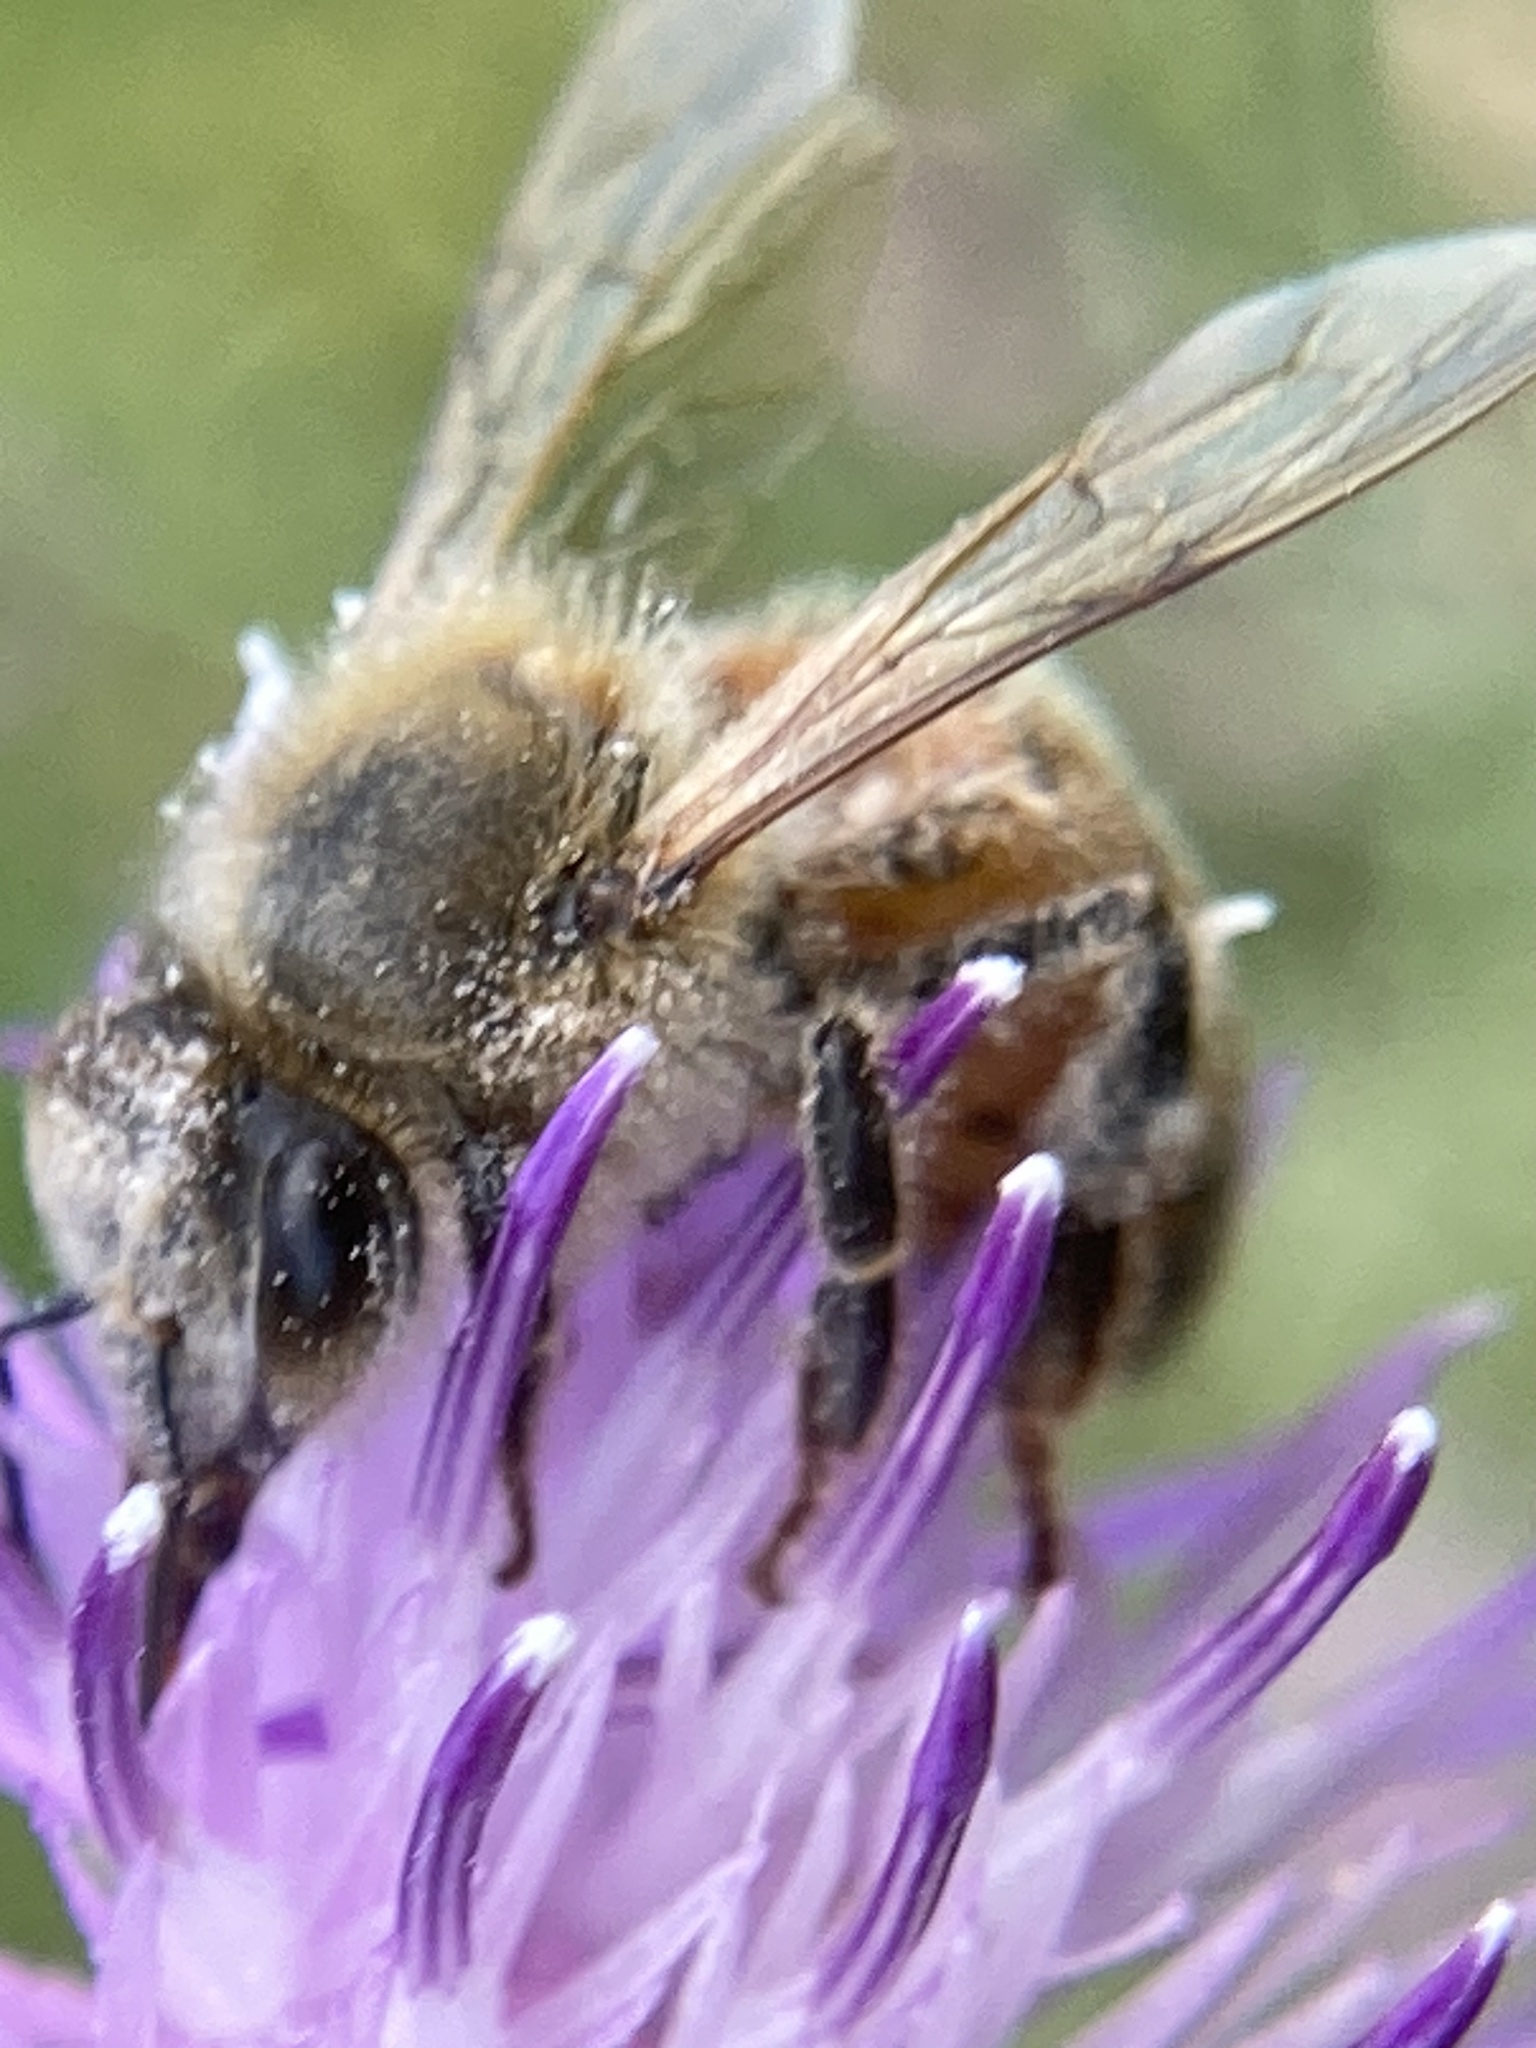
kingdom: Animalia
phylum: Arthropoda
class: Insecta
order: Hymenoptera
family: Apidae
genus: Apis
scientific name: Apis mellifera
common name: Honey bee
